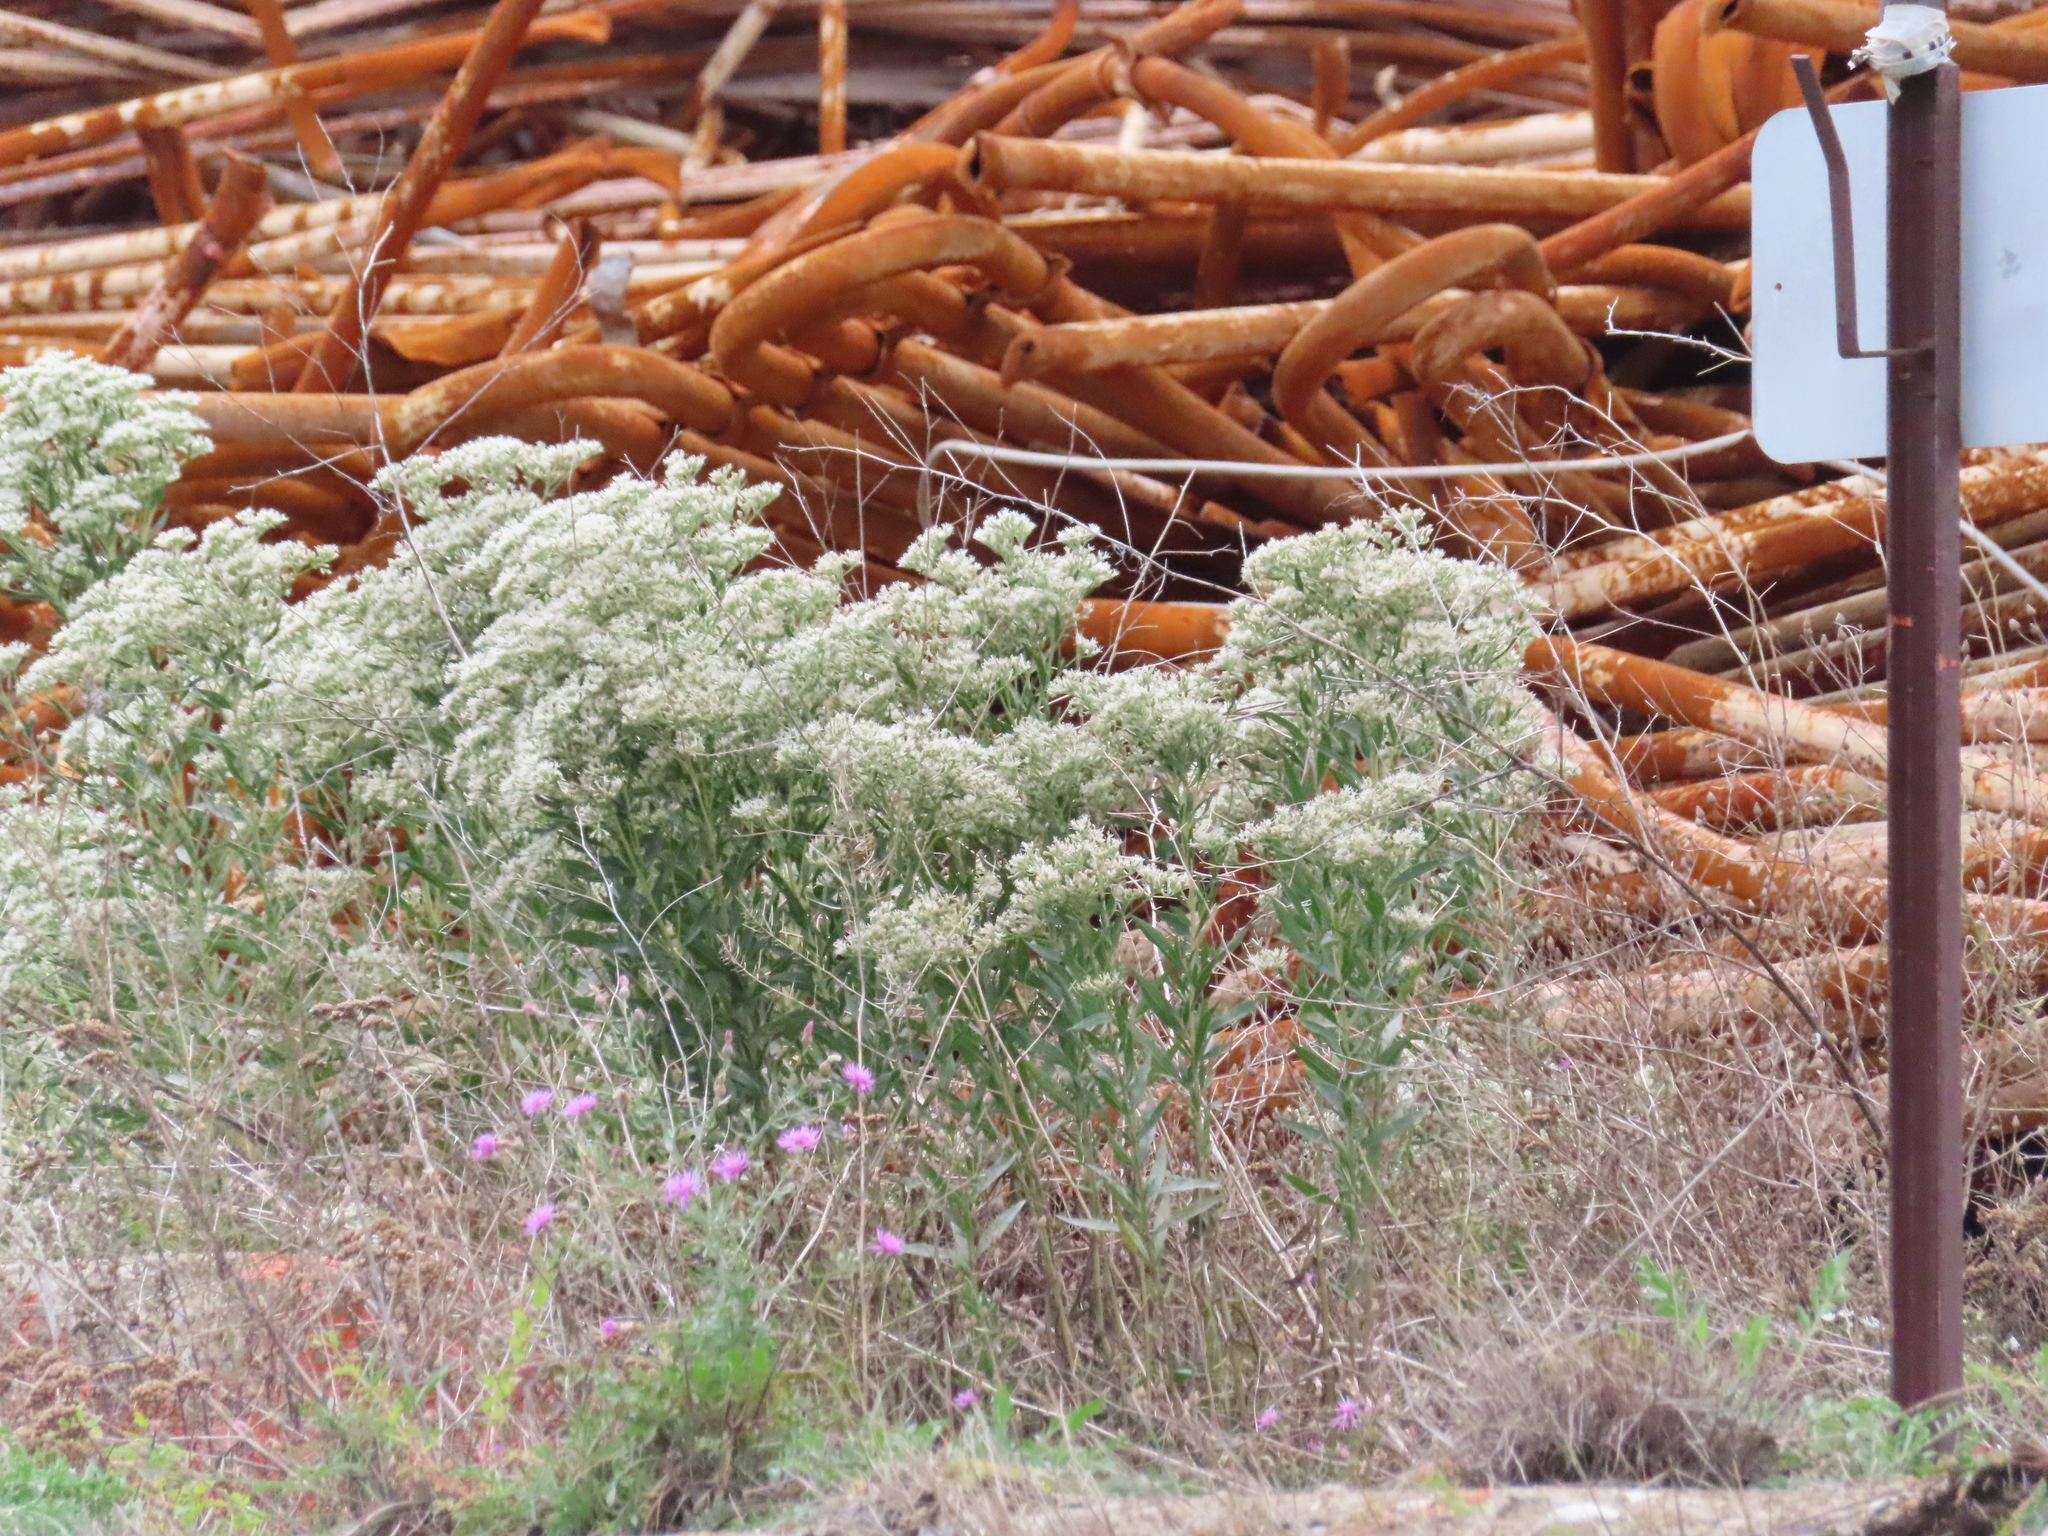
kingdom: Plantae
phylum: Tracheophyta
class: Magnoliopsida
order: Asterales
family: Asteraceae
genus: Eupatorium
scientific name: Eupatorium altissimum
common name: Tall thoroughwort
